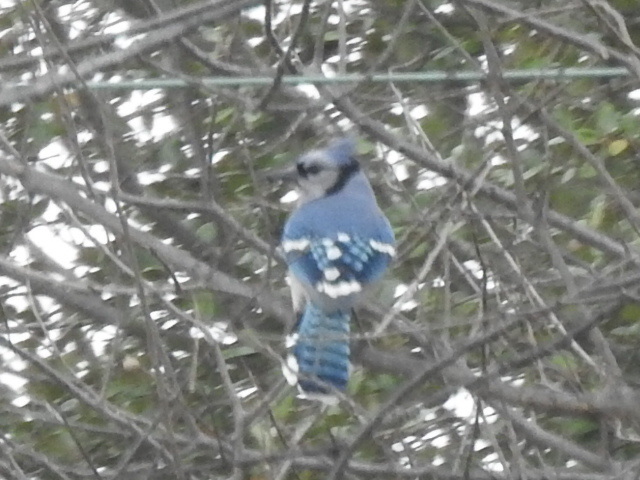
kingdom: Animalia
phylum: Chordata
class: Aves
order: Passeriformes
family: Corvidae
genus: Cyanocitta
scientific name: Cyanocitta cristata
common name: Blue jay
